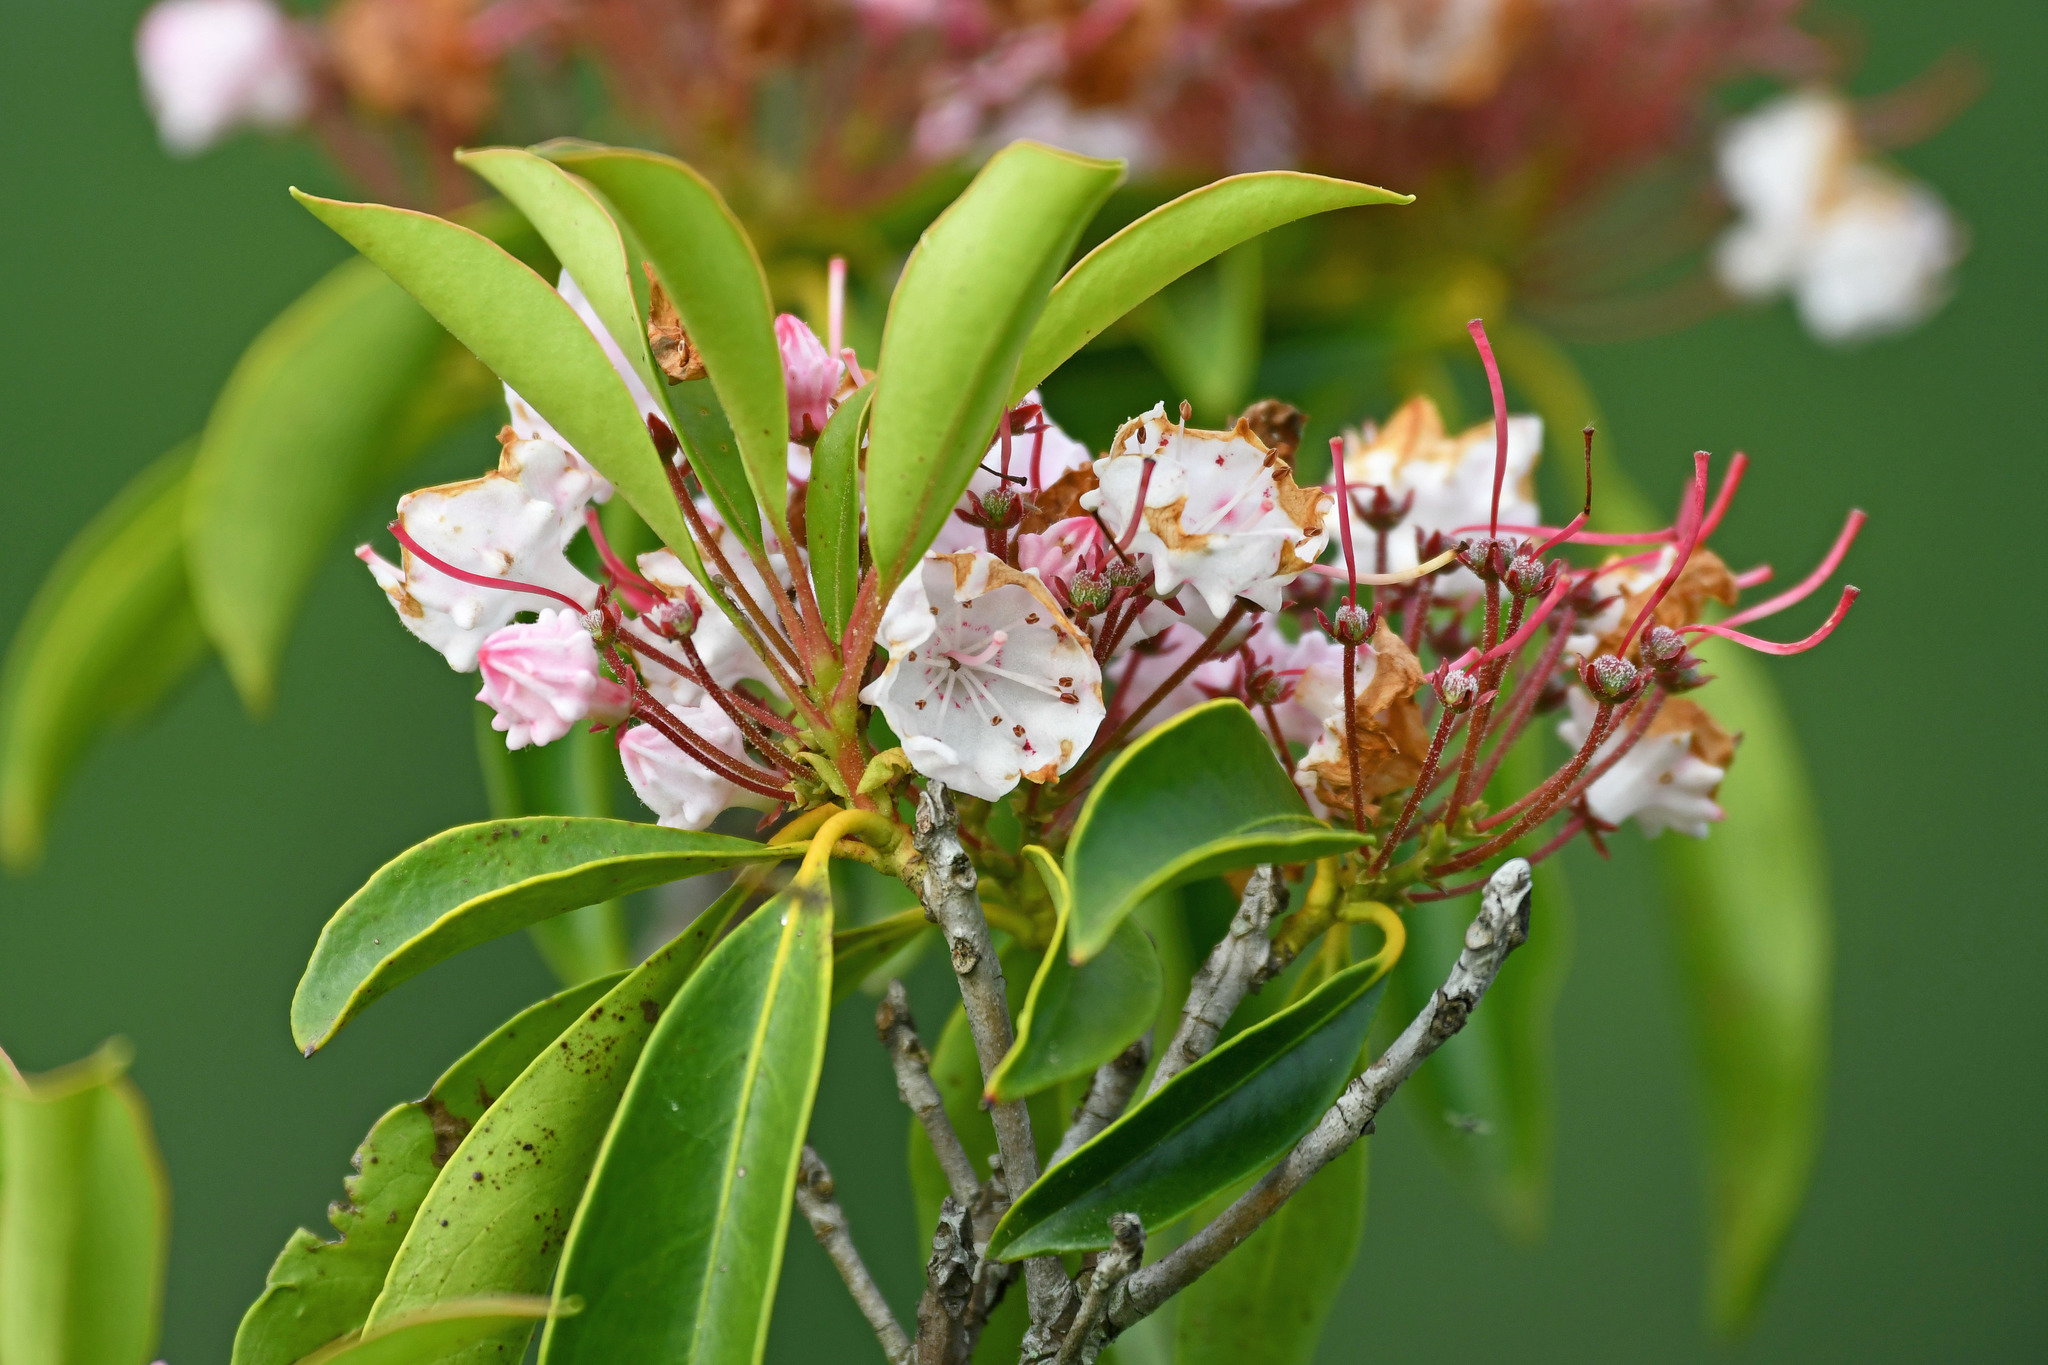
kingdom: Plantae
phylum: Tracheophyta
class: Magnoliopsida
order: Ericales
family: Ericaceae
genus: Kalmia
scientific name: Kalmia latifolia
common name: Mountain-laurel
